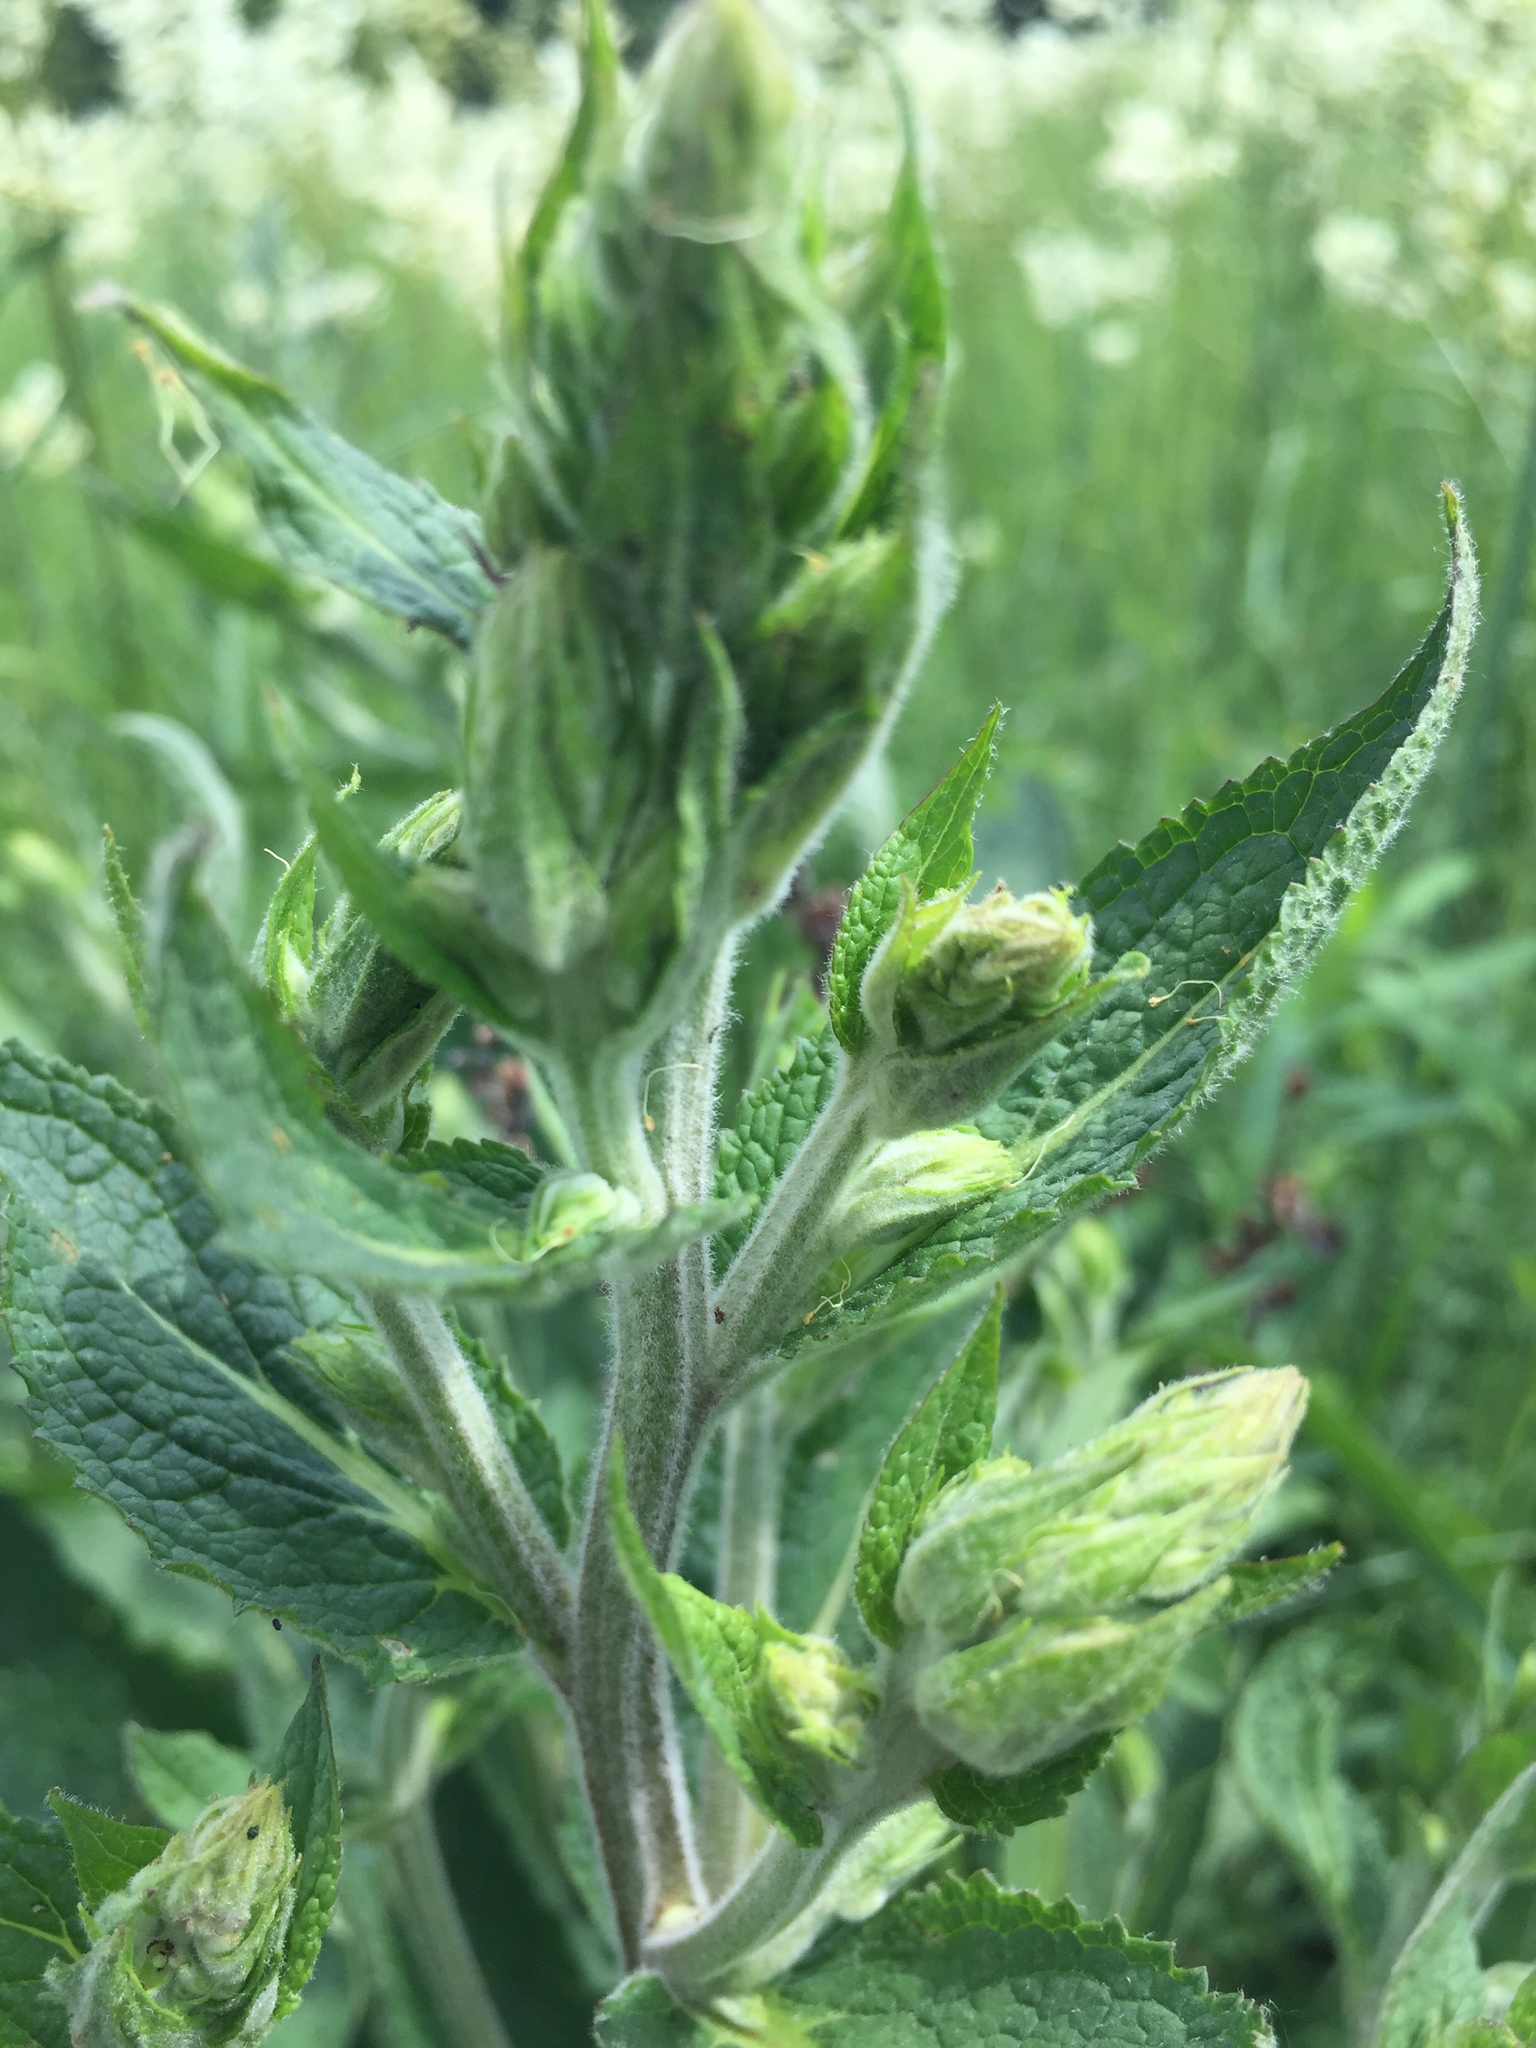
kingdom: Plantae
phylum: Tracheophyta
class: Magnoliopsida
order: Lamiales
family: Scrophulariaceae
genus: Verbascum
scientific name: Verbascum chaixii
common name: Nettle-leaved mullein
